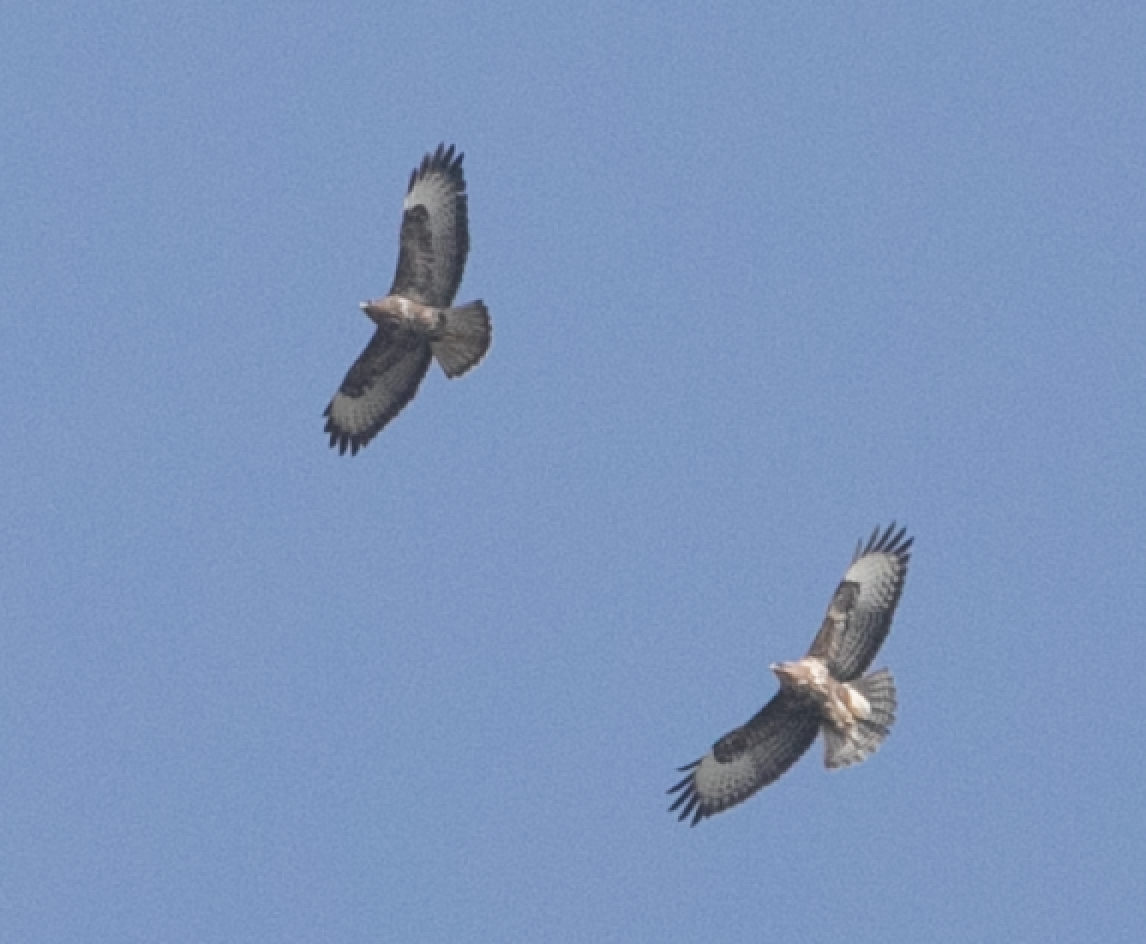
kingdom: Animalia
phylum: Chordata
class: Aves
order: Accipitriformes
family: Accipitridae
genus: Buteo
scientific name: Buteo buteo
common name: Common buzzard
